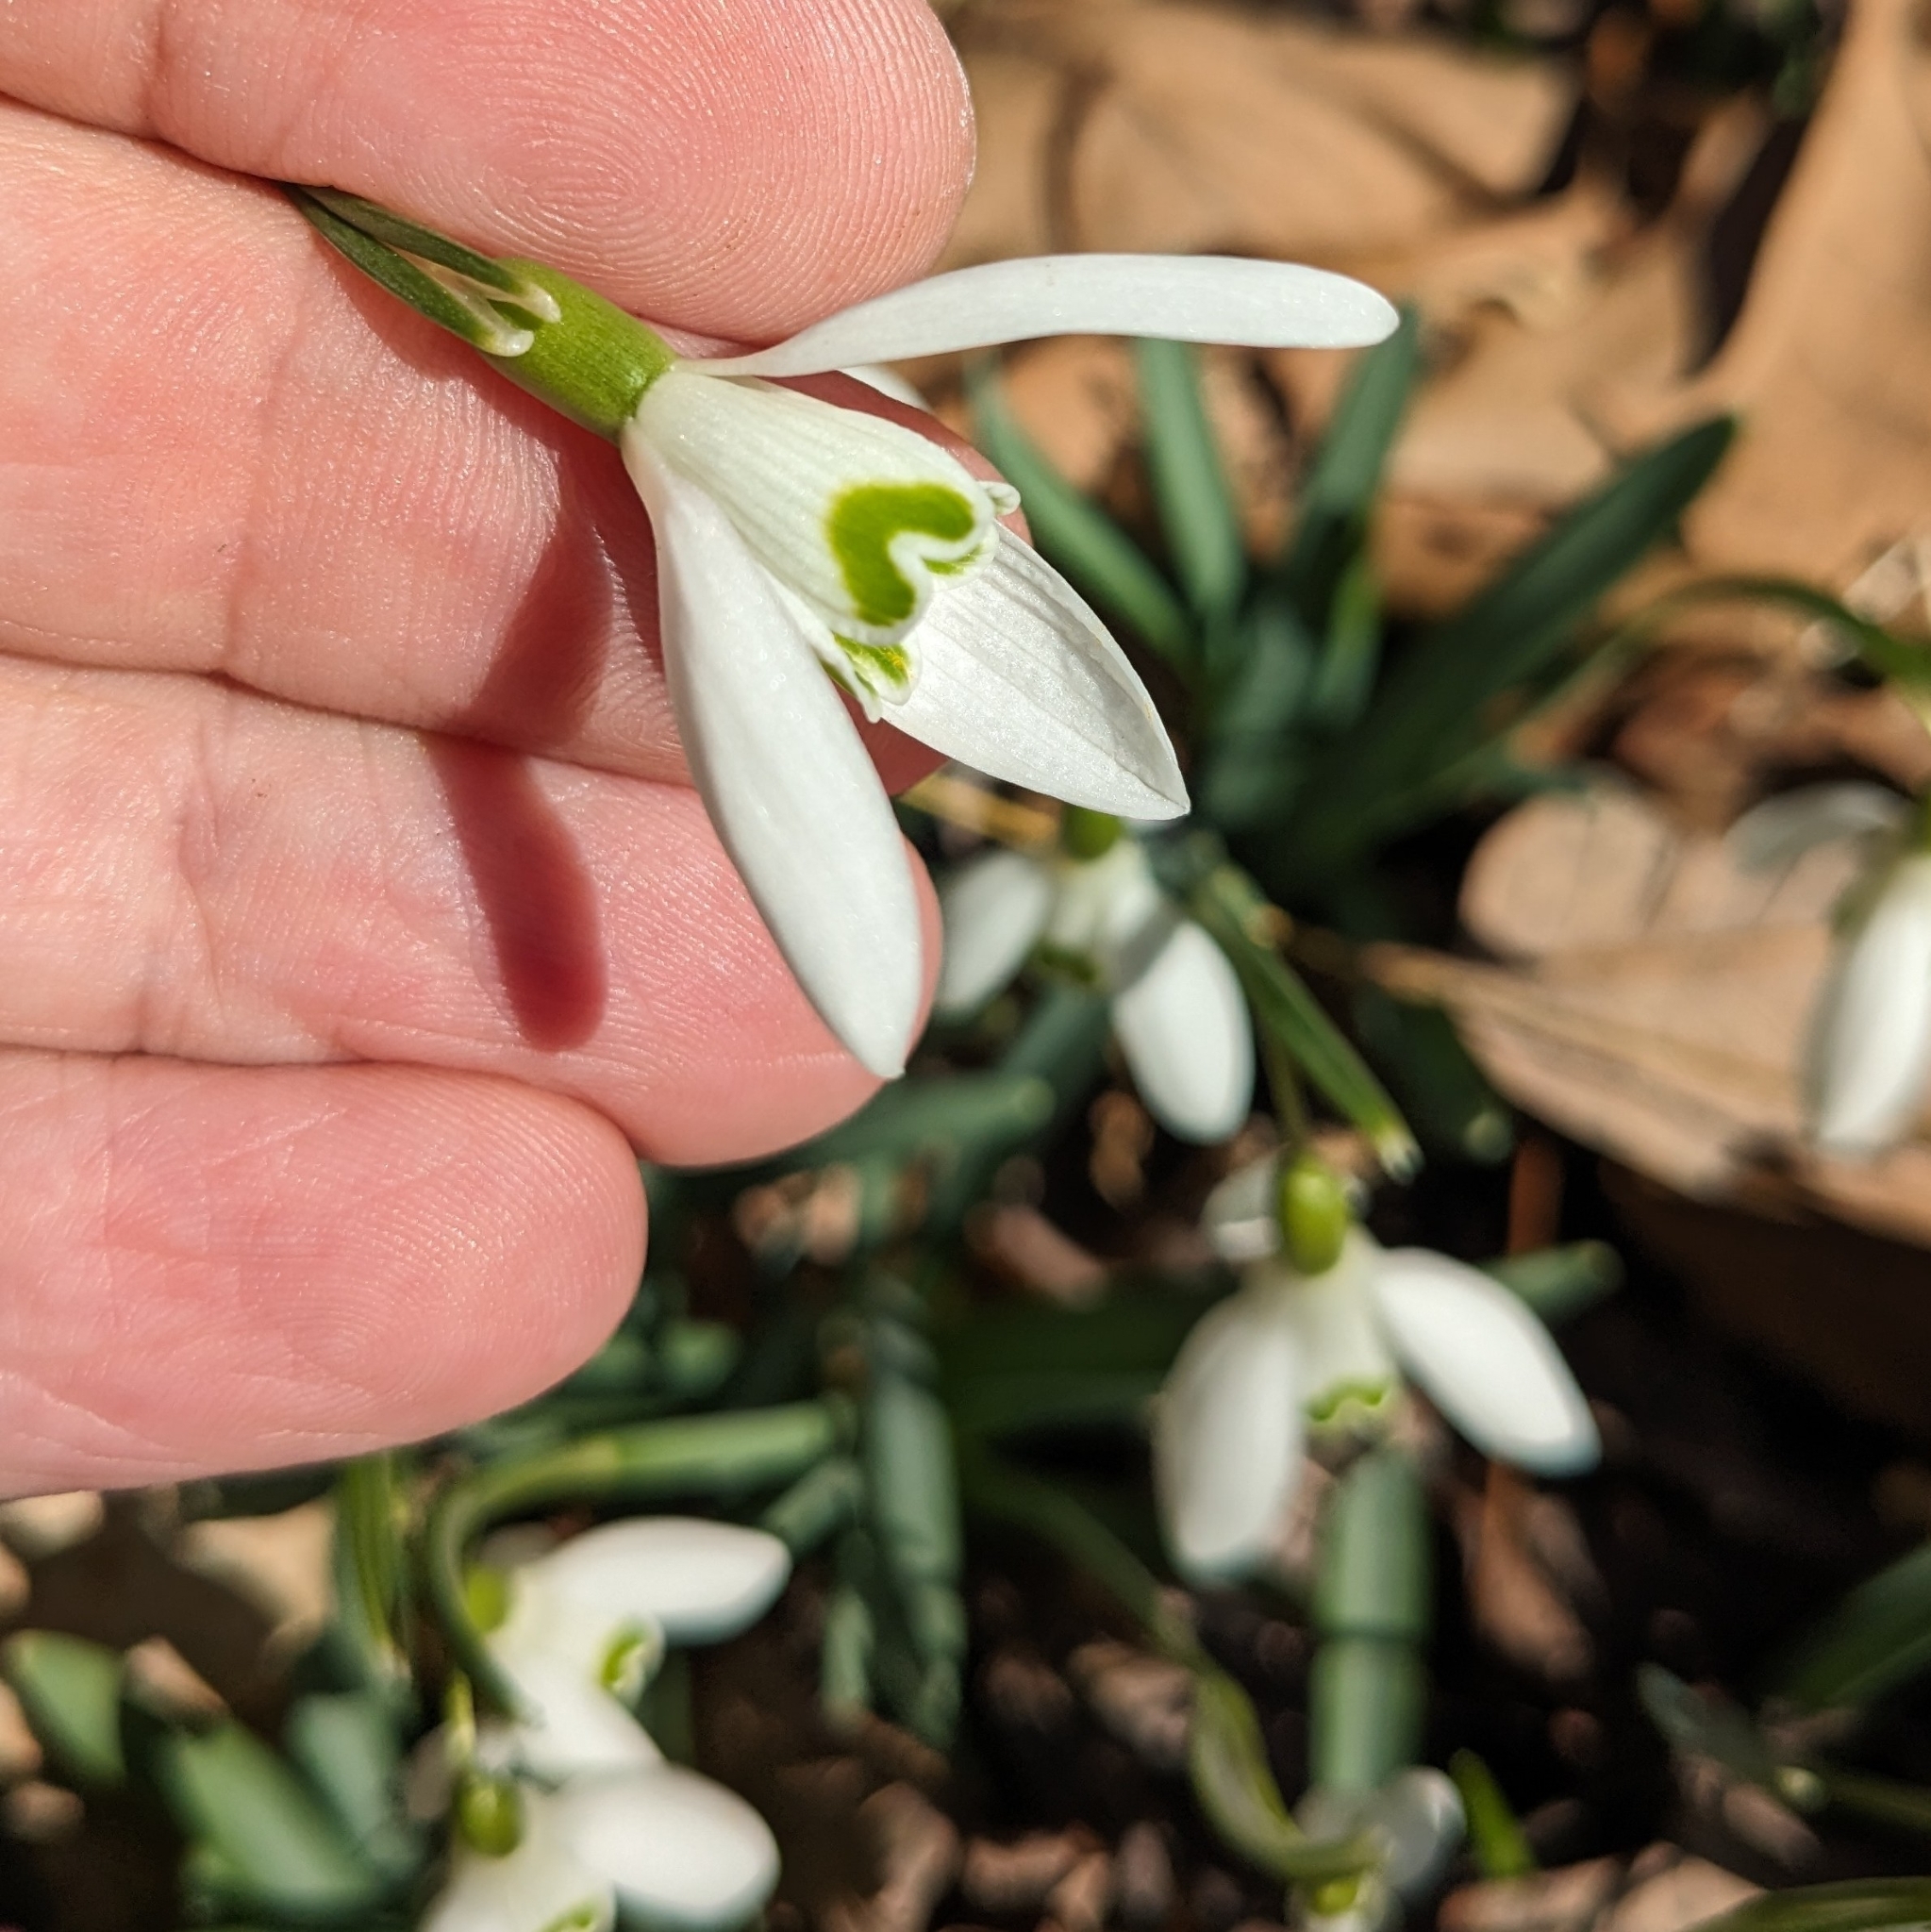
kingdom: Plantae
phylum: Tracheophyta
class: Liliopsida
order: Asparagales
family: Amaryllidaceae
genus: Galanthus
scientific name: Galanthus nivalis
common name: Snowdrop
